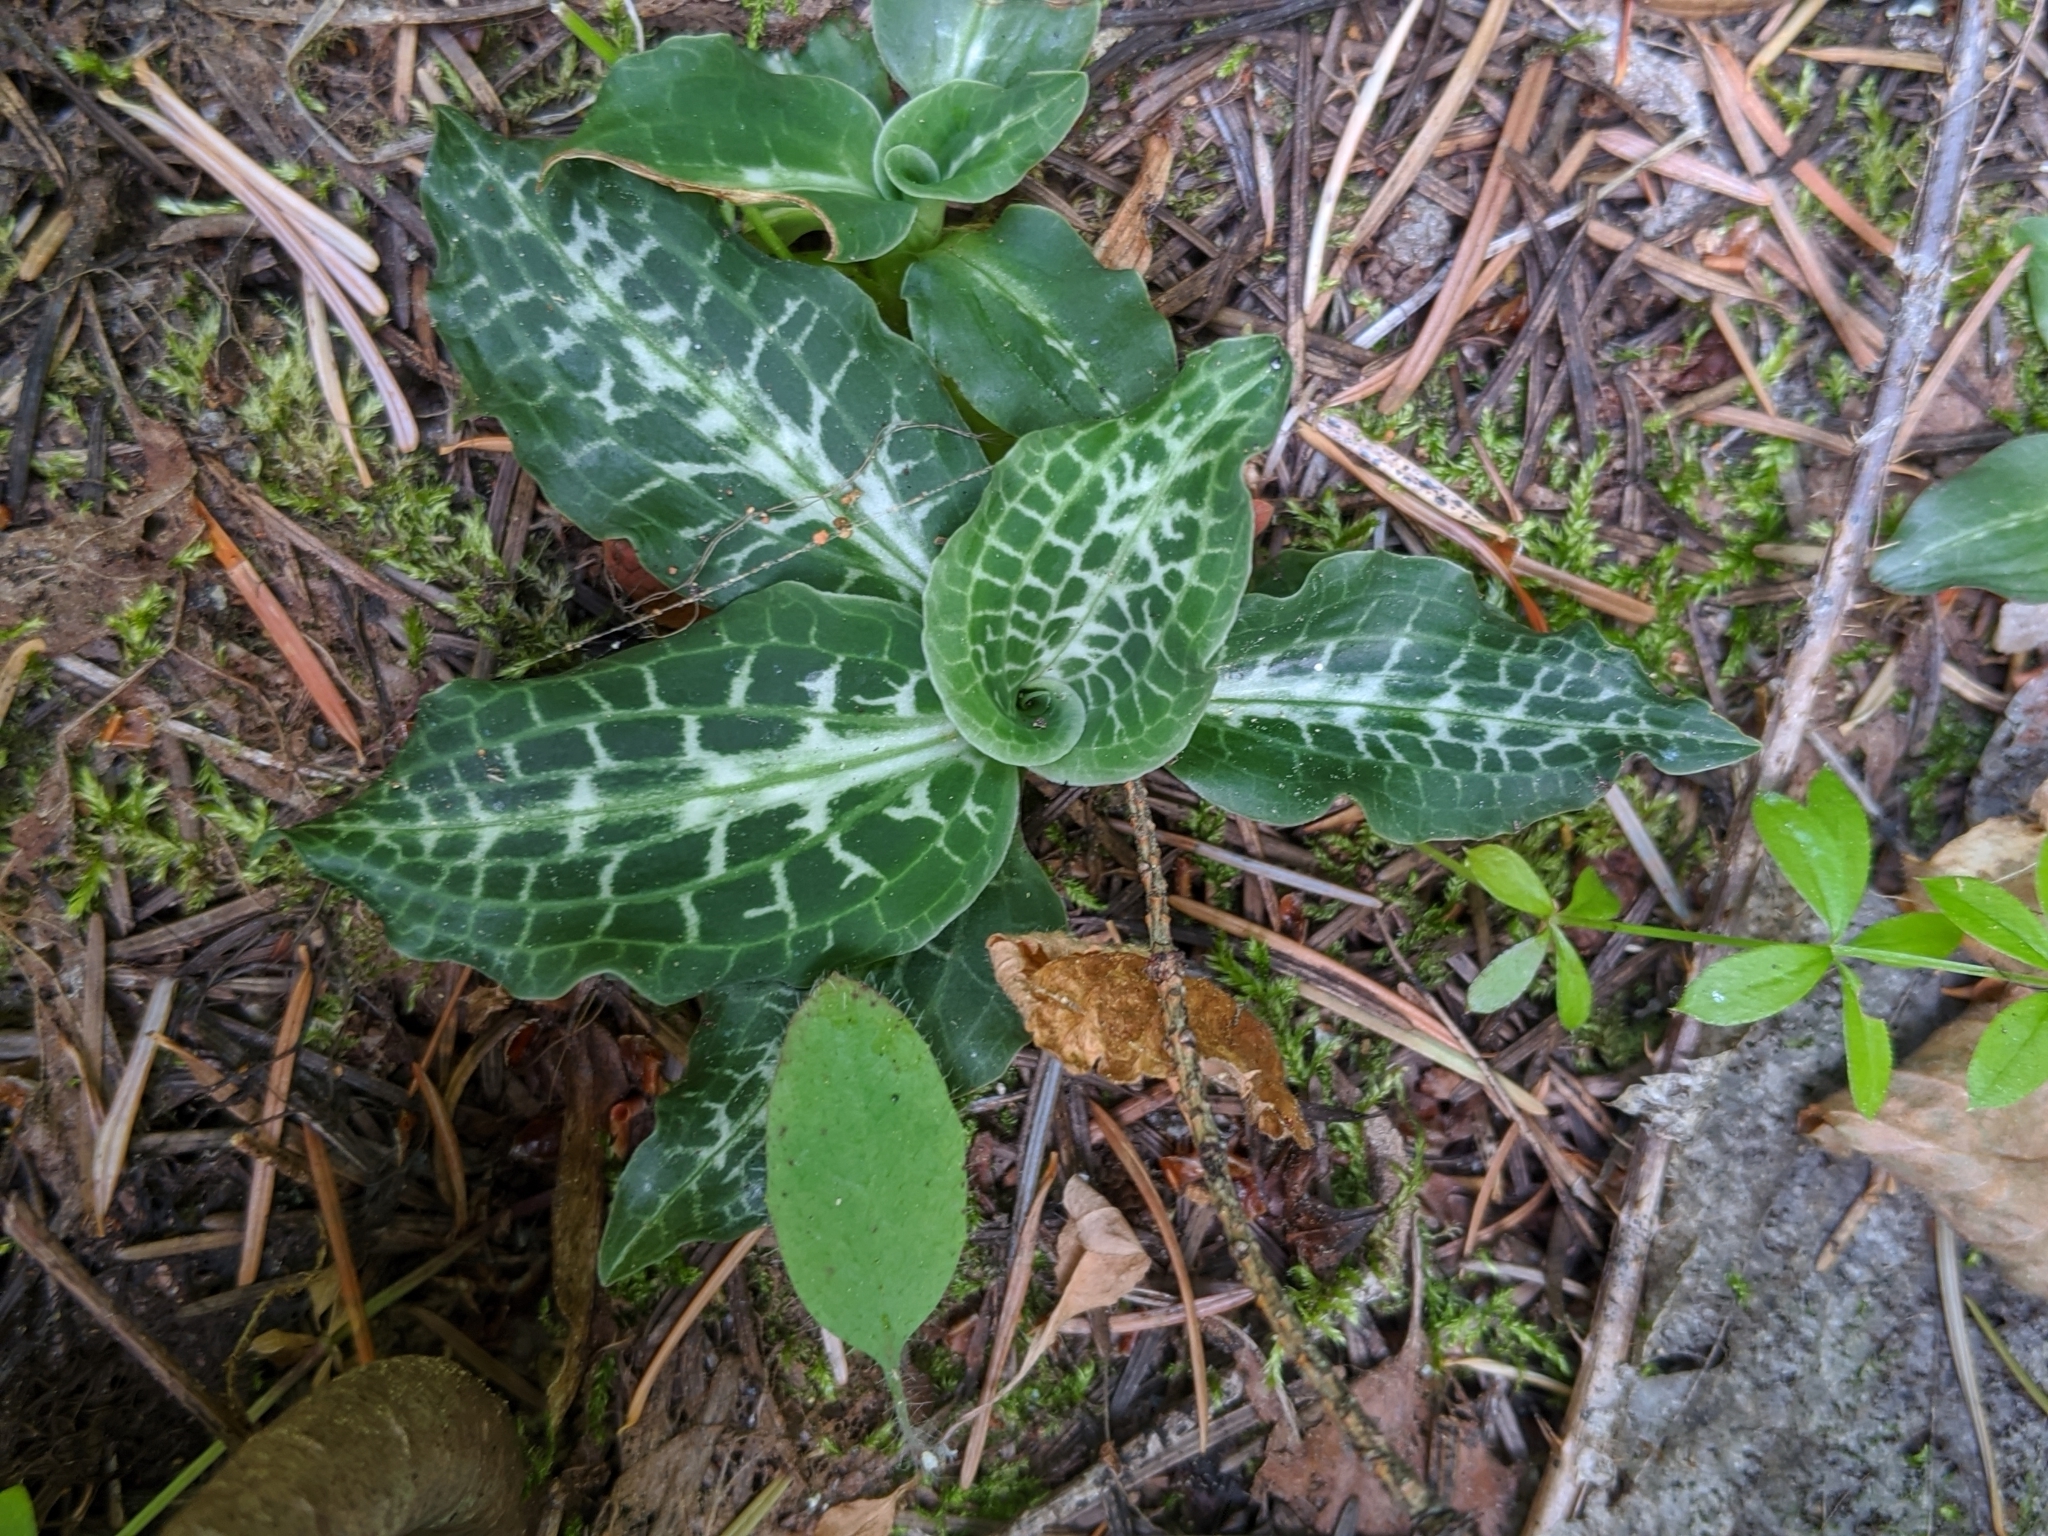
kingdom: Plantae
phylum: Tracheophyta
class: Liliopsida
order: Asparagales
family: Orchidaceae
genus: Goodyera
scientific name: Goodyera oblongifolia
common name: Giant rattlesnake-plantain
